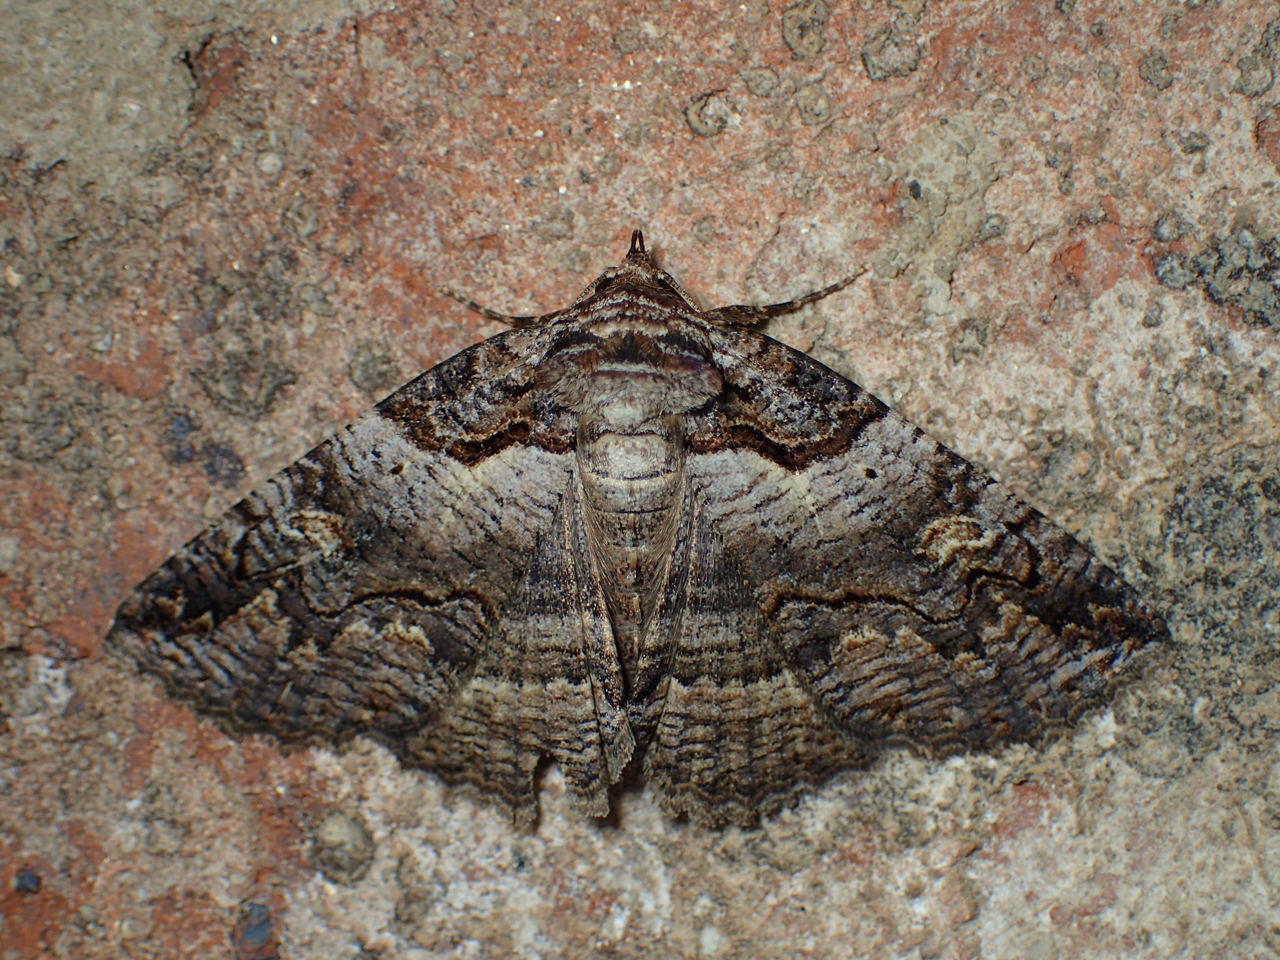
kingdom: Animalia
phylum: Arthropoda
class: Insecta
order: Lepidoptera
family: Erebidae
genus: Zale
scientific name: Zale intenta
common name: Intent zale moth
